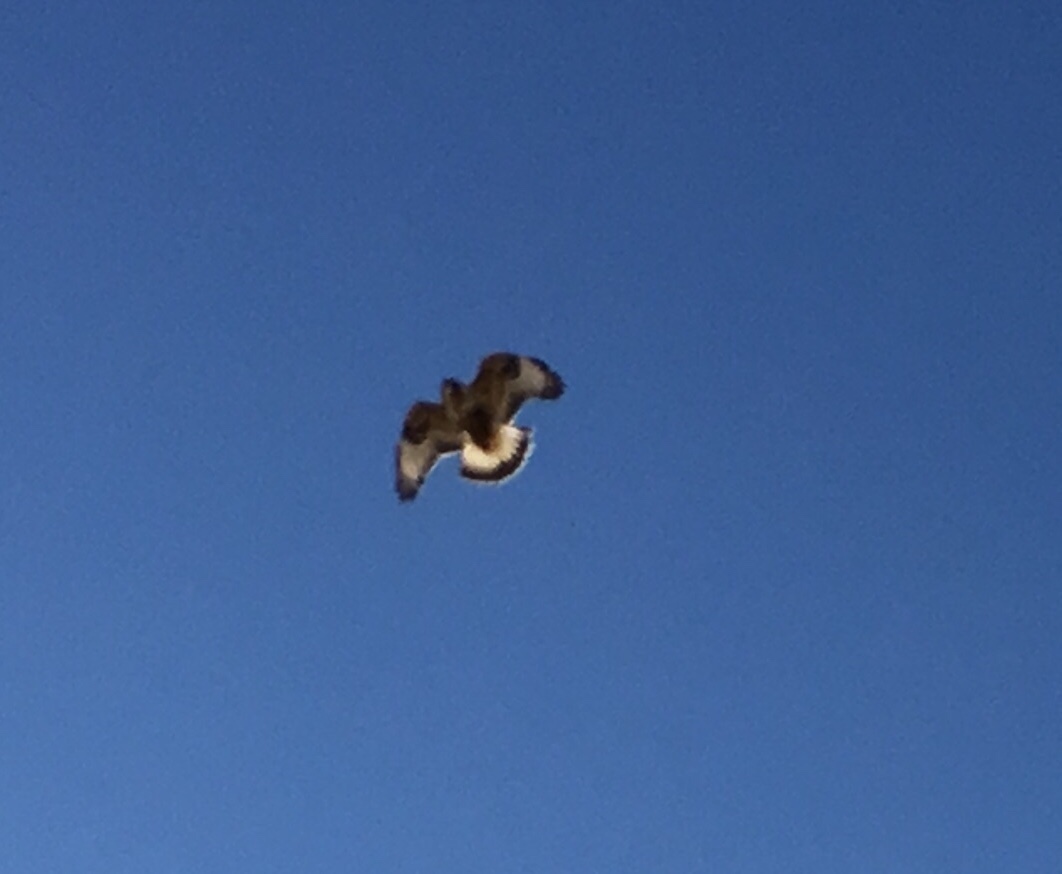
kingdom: Animalia
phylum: Chordata
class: Aves
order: Accipitriformes
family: Accipitridae
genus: Buteo
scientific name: Buteo lagopus
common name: Rough-legged buzzard
